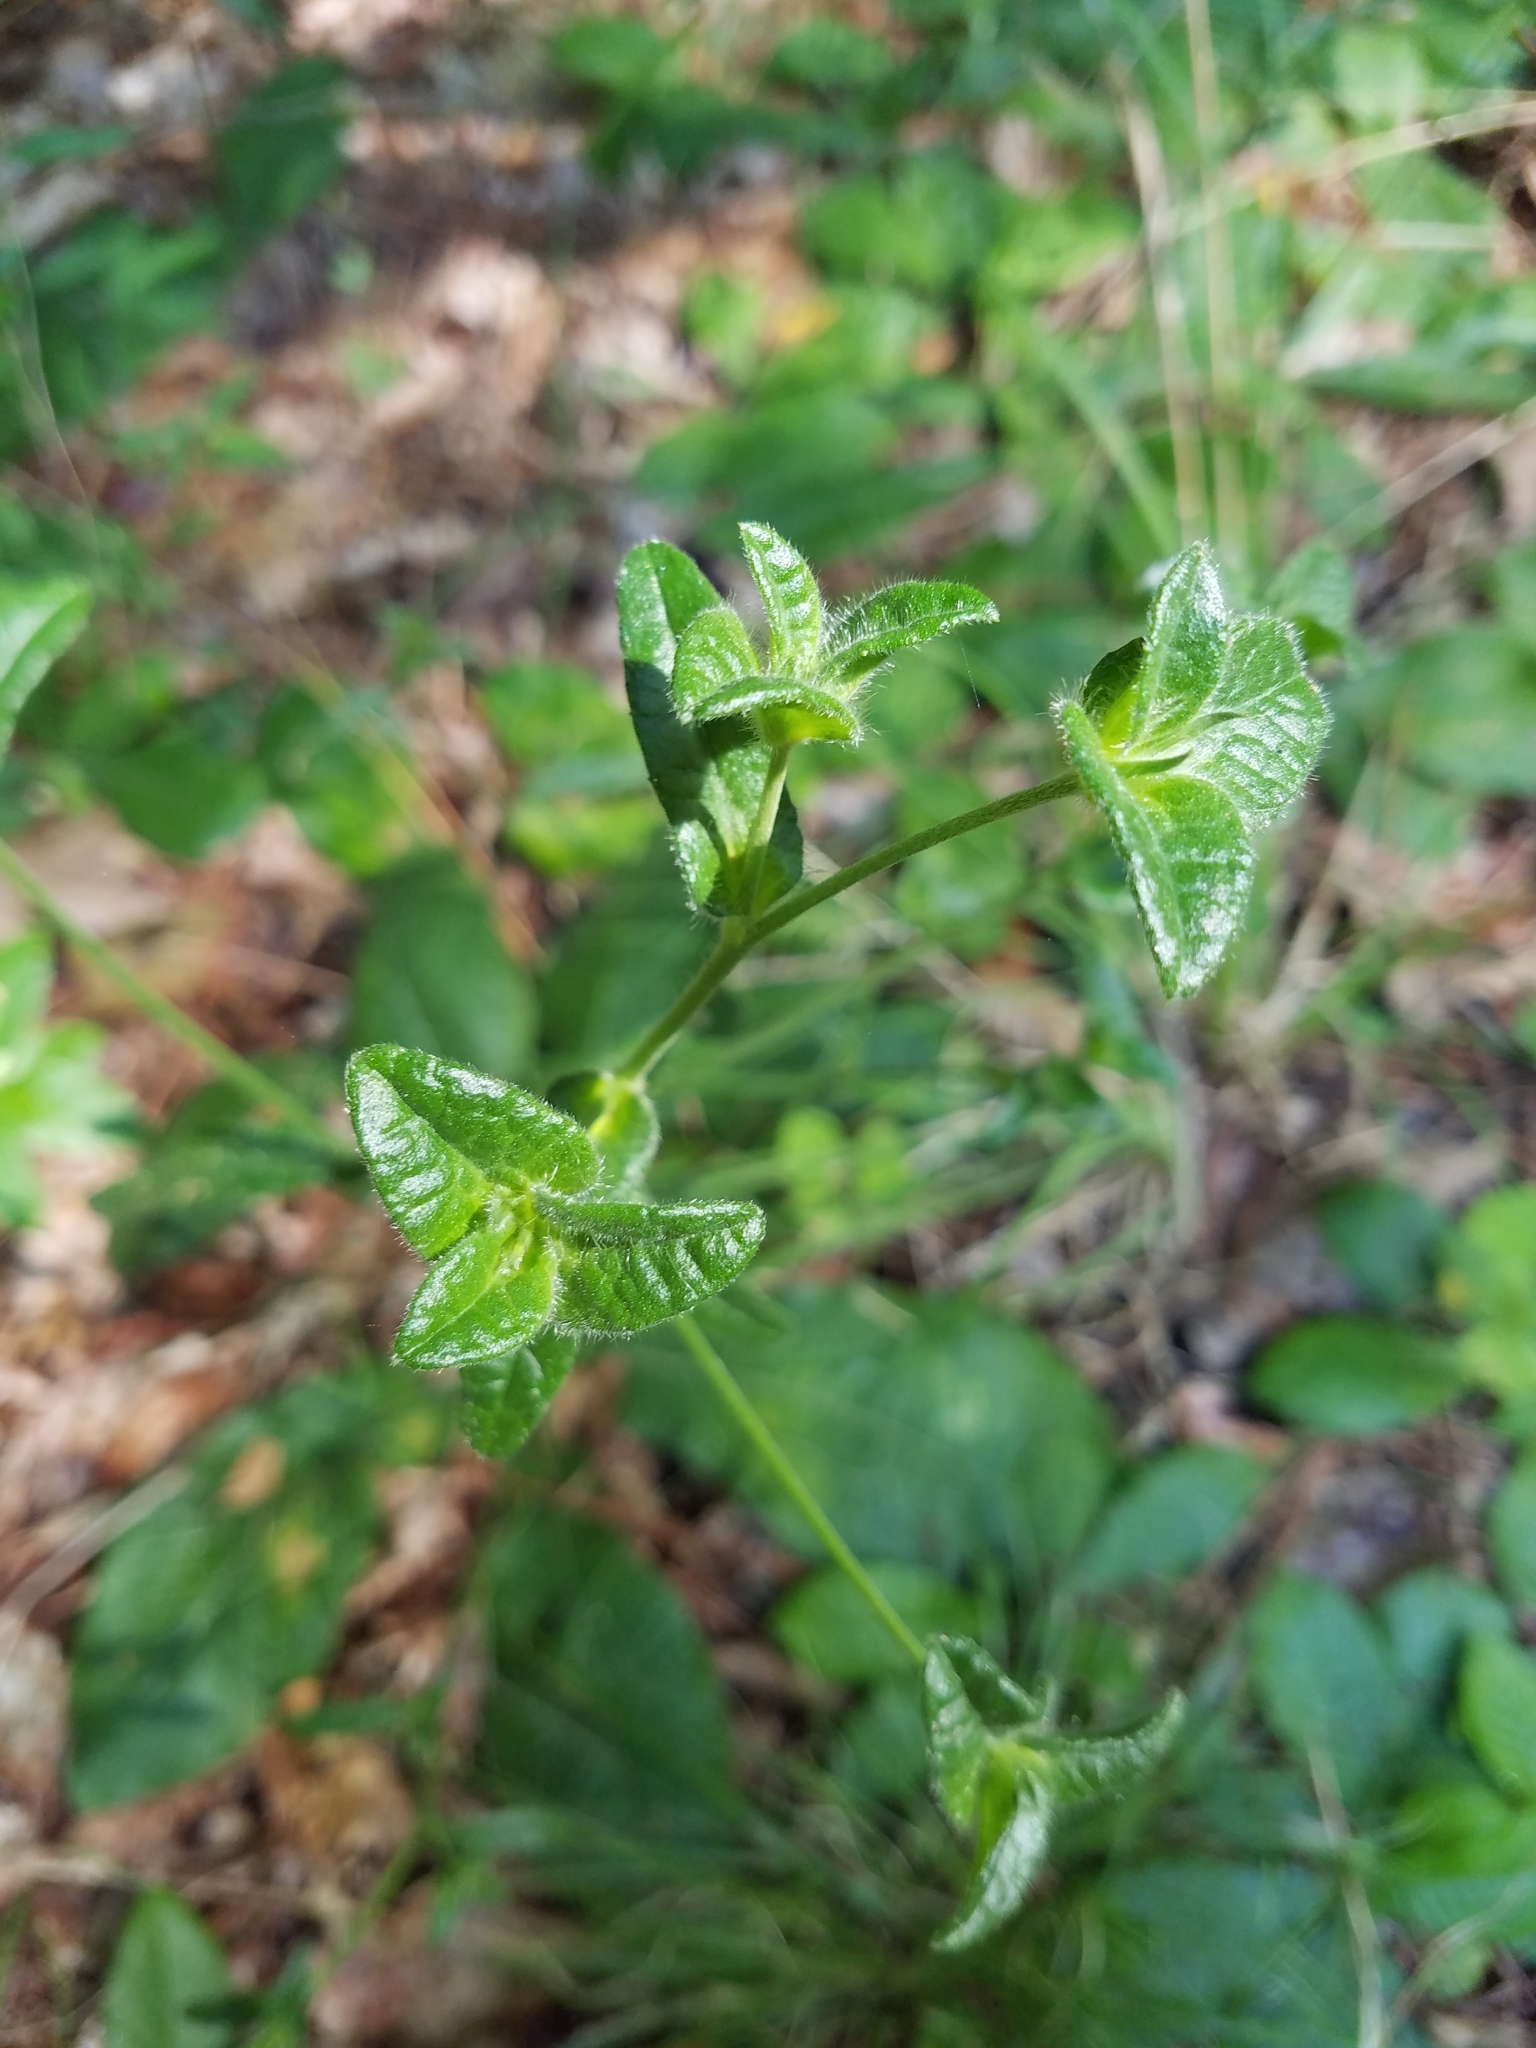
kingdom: Plantae
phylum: Tracheophyta
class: Magnoliopsida
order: Asterales
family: Asteraceae
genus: Elephantopus
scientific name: Elephantopus tomentosus
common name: Tobacco-weed
